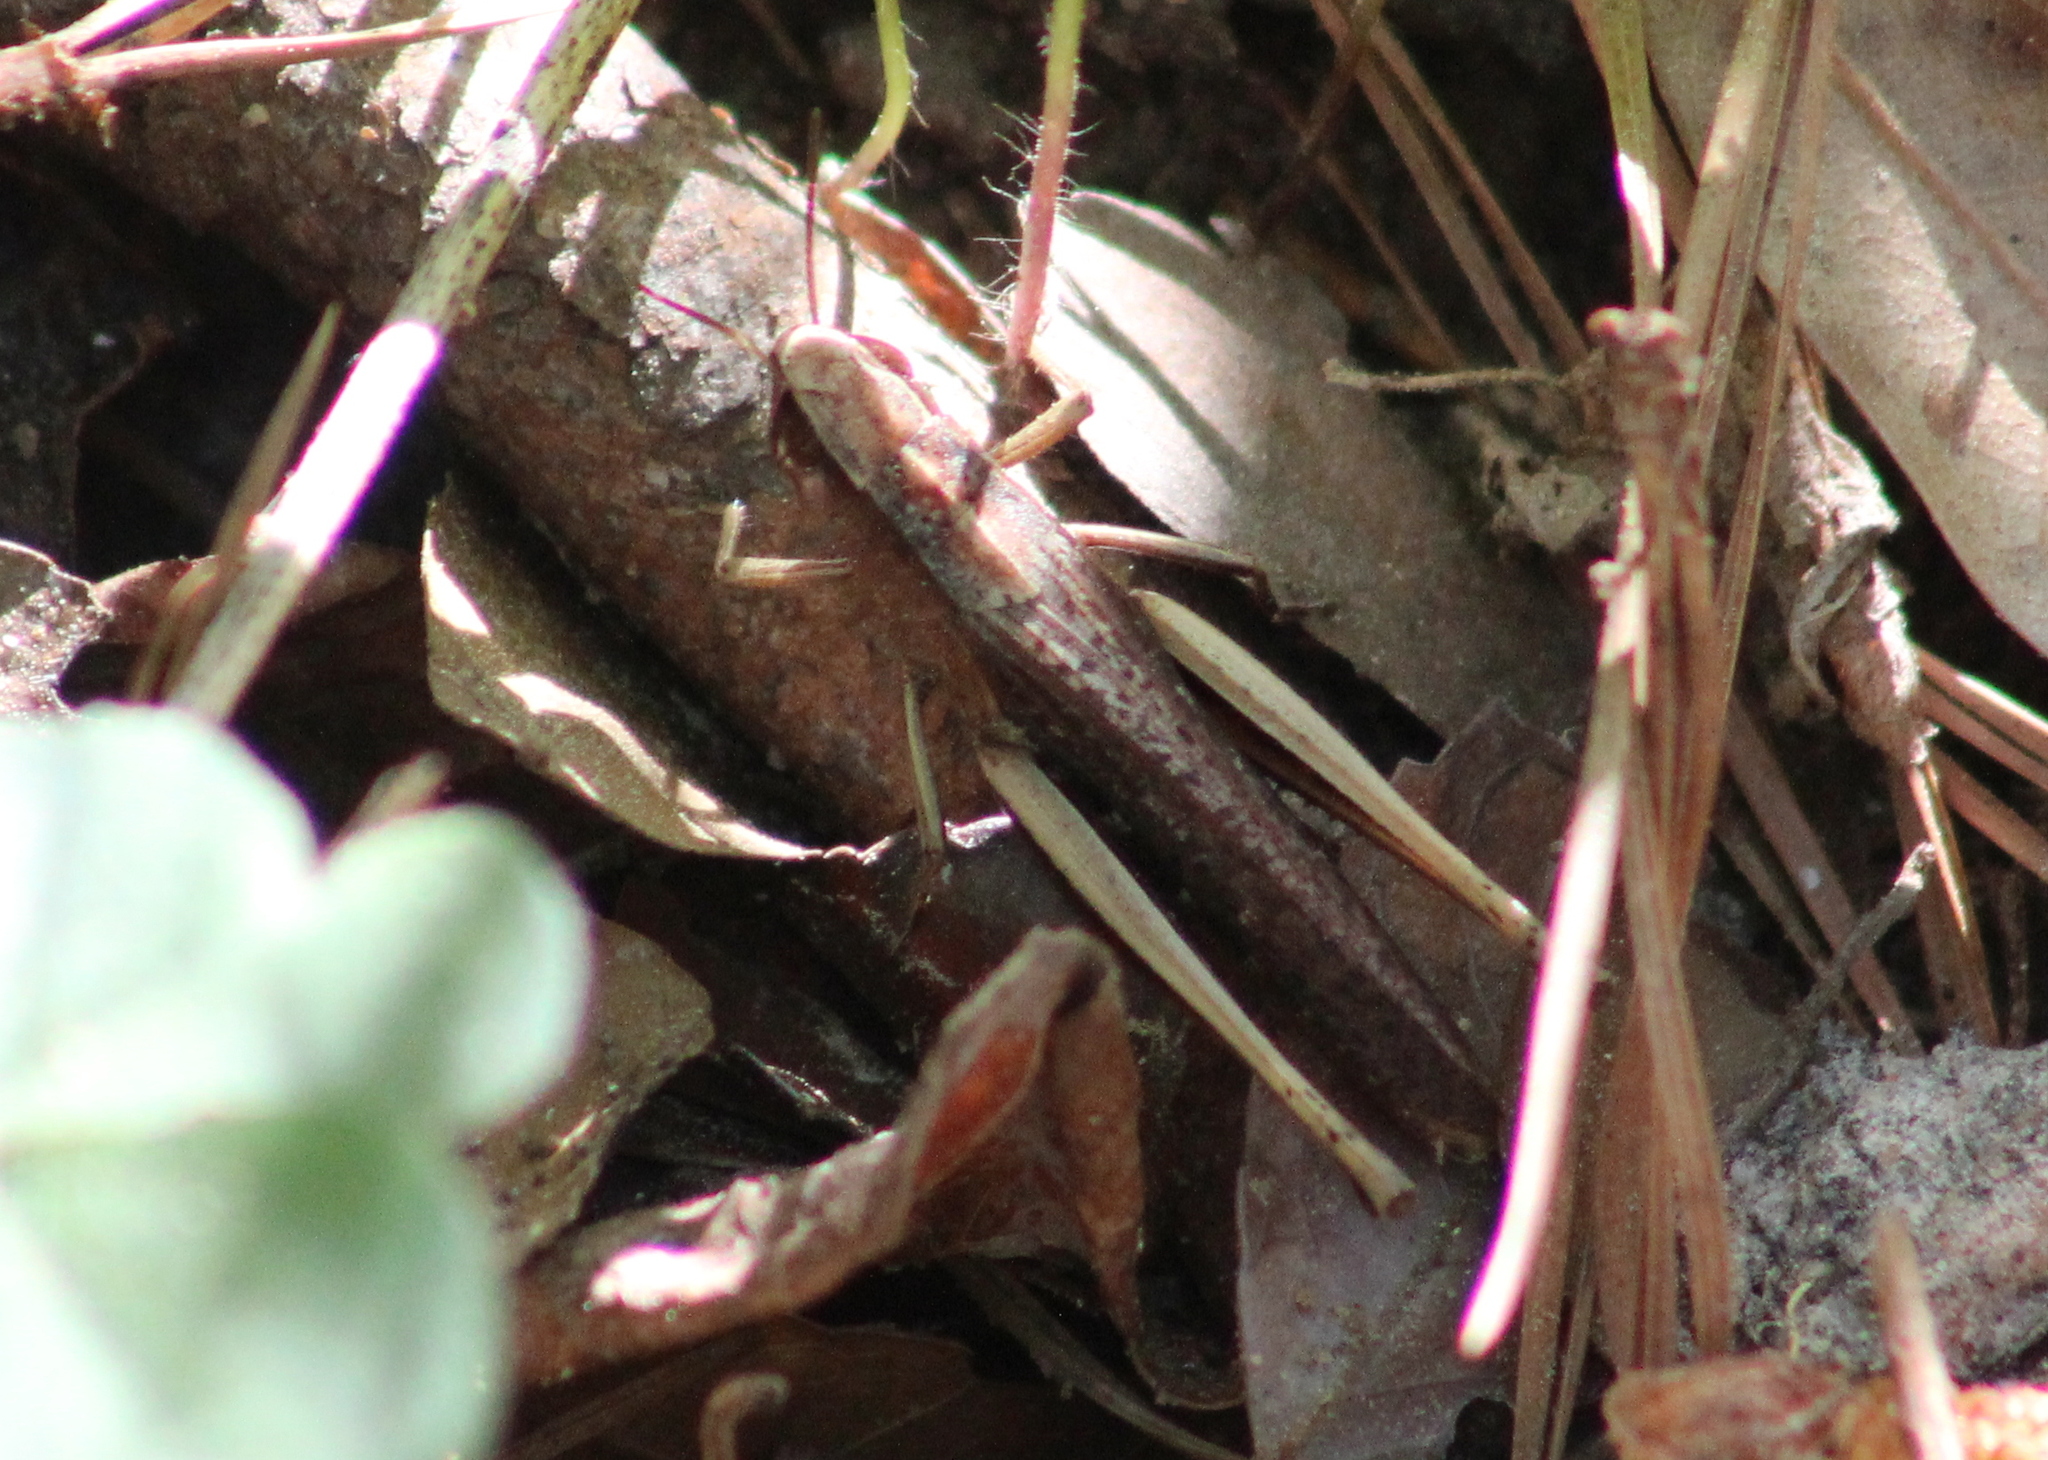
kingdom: Animalia
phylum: Arthropoda
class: Insecta
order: Orthoptera
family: Acrididae
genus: Amblytropidia
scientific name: Amblytropidia mysteca
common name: Brown winter grasshopper
